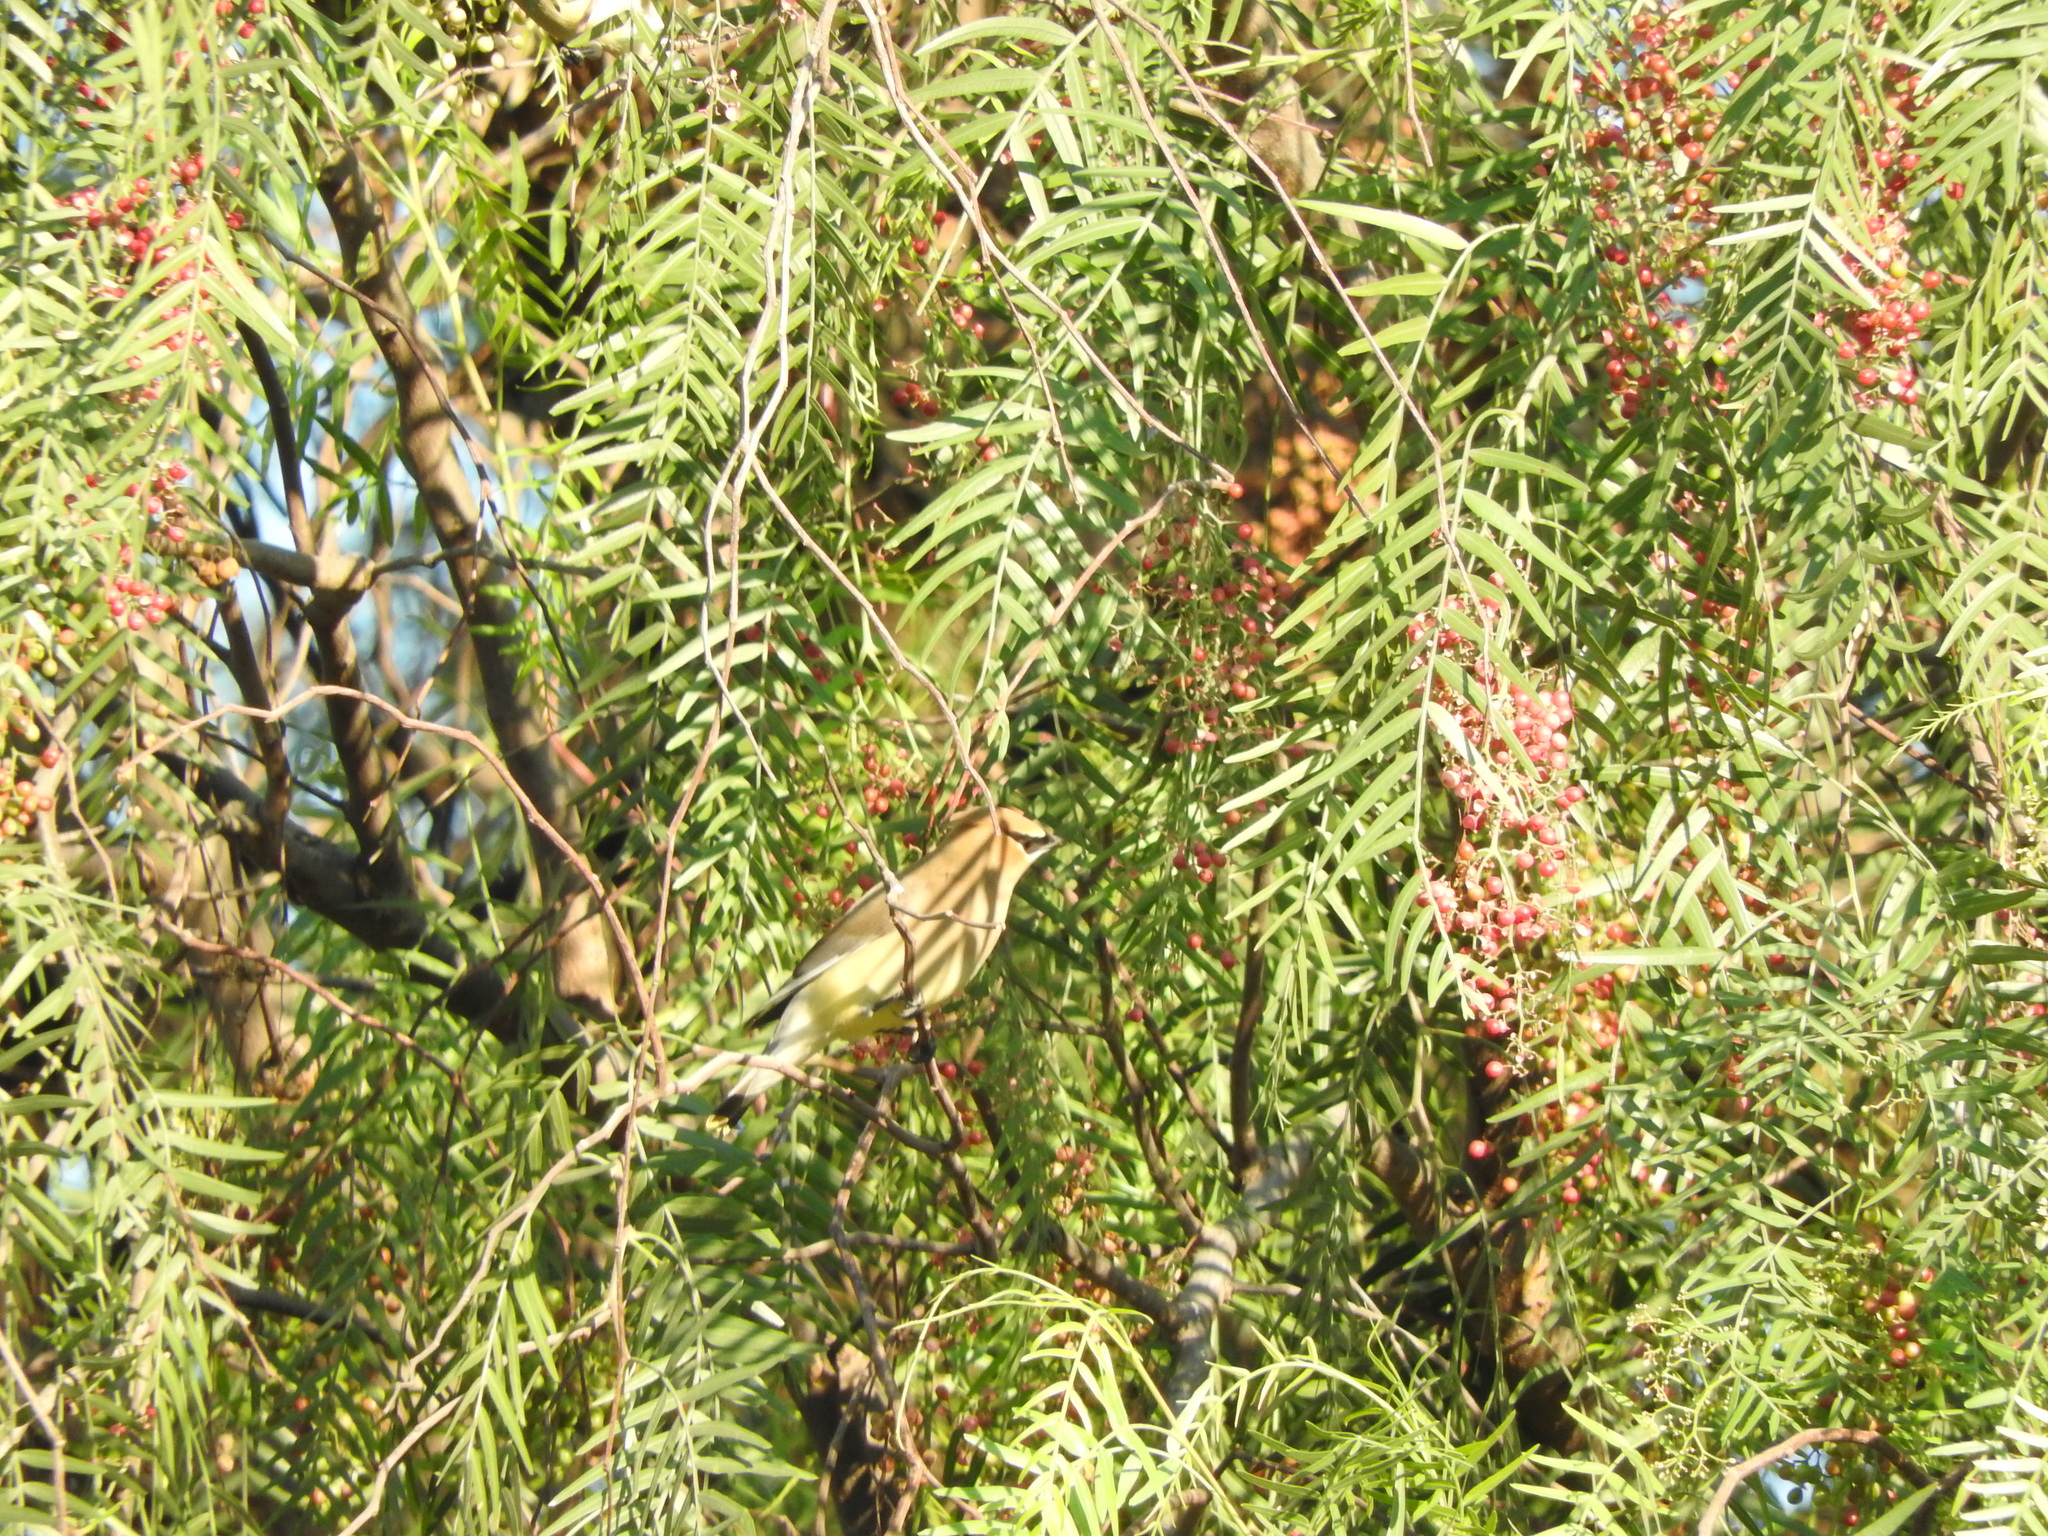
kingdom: Animalia
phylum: Chordata
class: Aves
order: Passeriformes
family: Bombycillidae
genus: Bombycilla
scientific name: Bombycilla cedrorum
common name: Cedar waxwing
